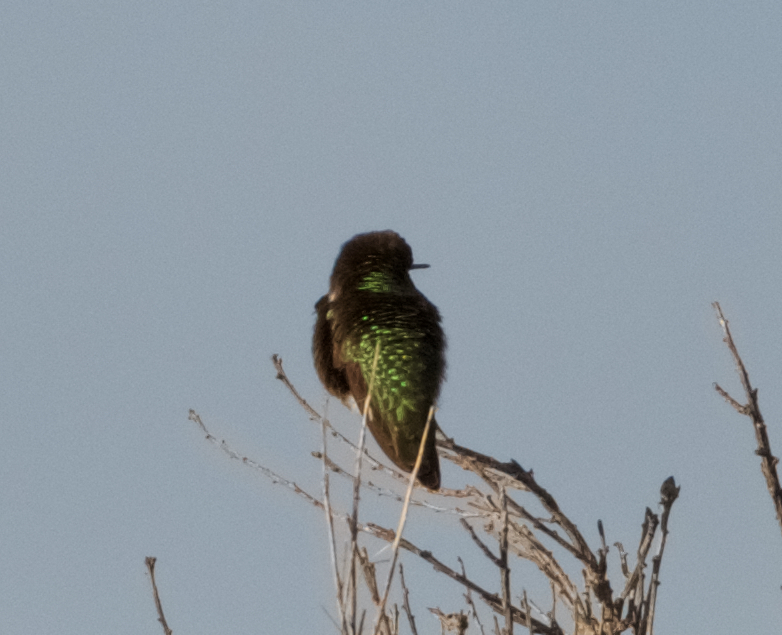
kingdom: Animalia
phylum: Chordata
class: Aves
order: Apodiformes
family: Trochilidae
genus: Calypte
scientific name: Calypte anna
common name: Anna's hummingbird
